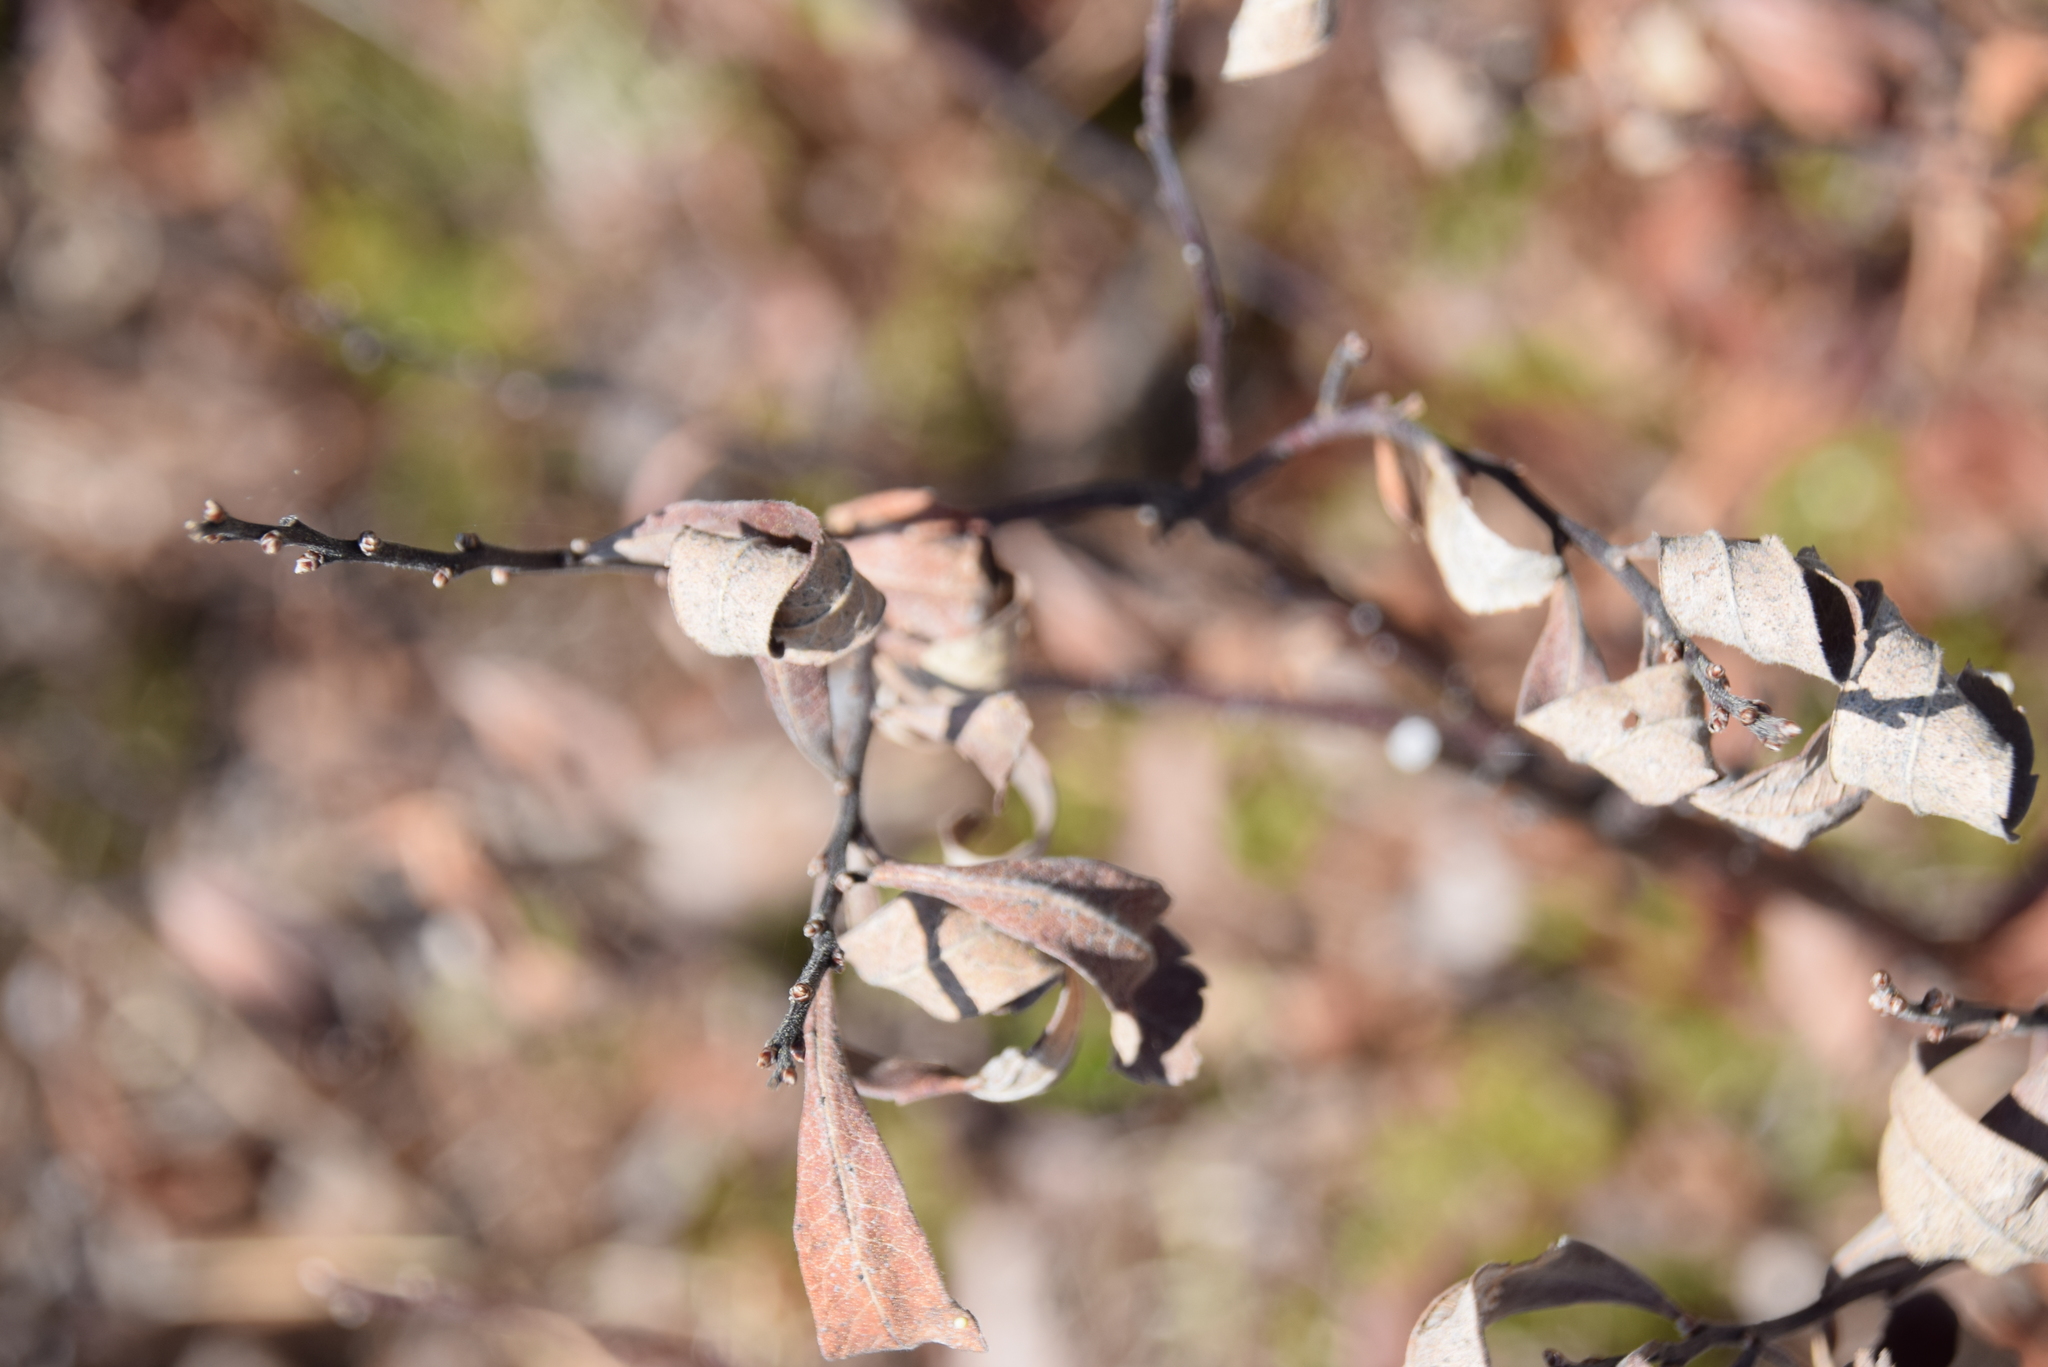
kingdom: Plantae
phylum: Tracheophyta
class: Magnoliopsida
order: Fagales
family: Myricaceae
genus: Myrica
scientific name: Myrica gale
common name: Sweet gale
